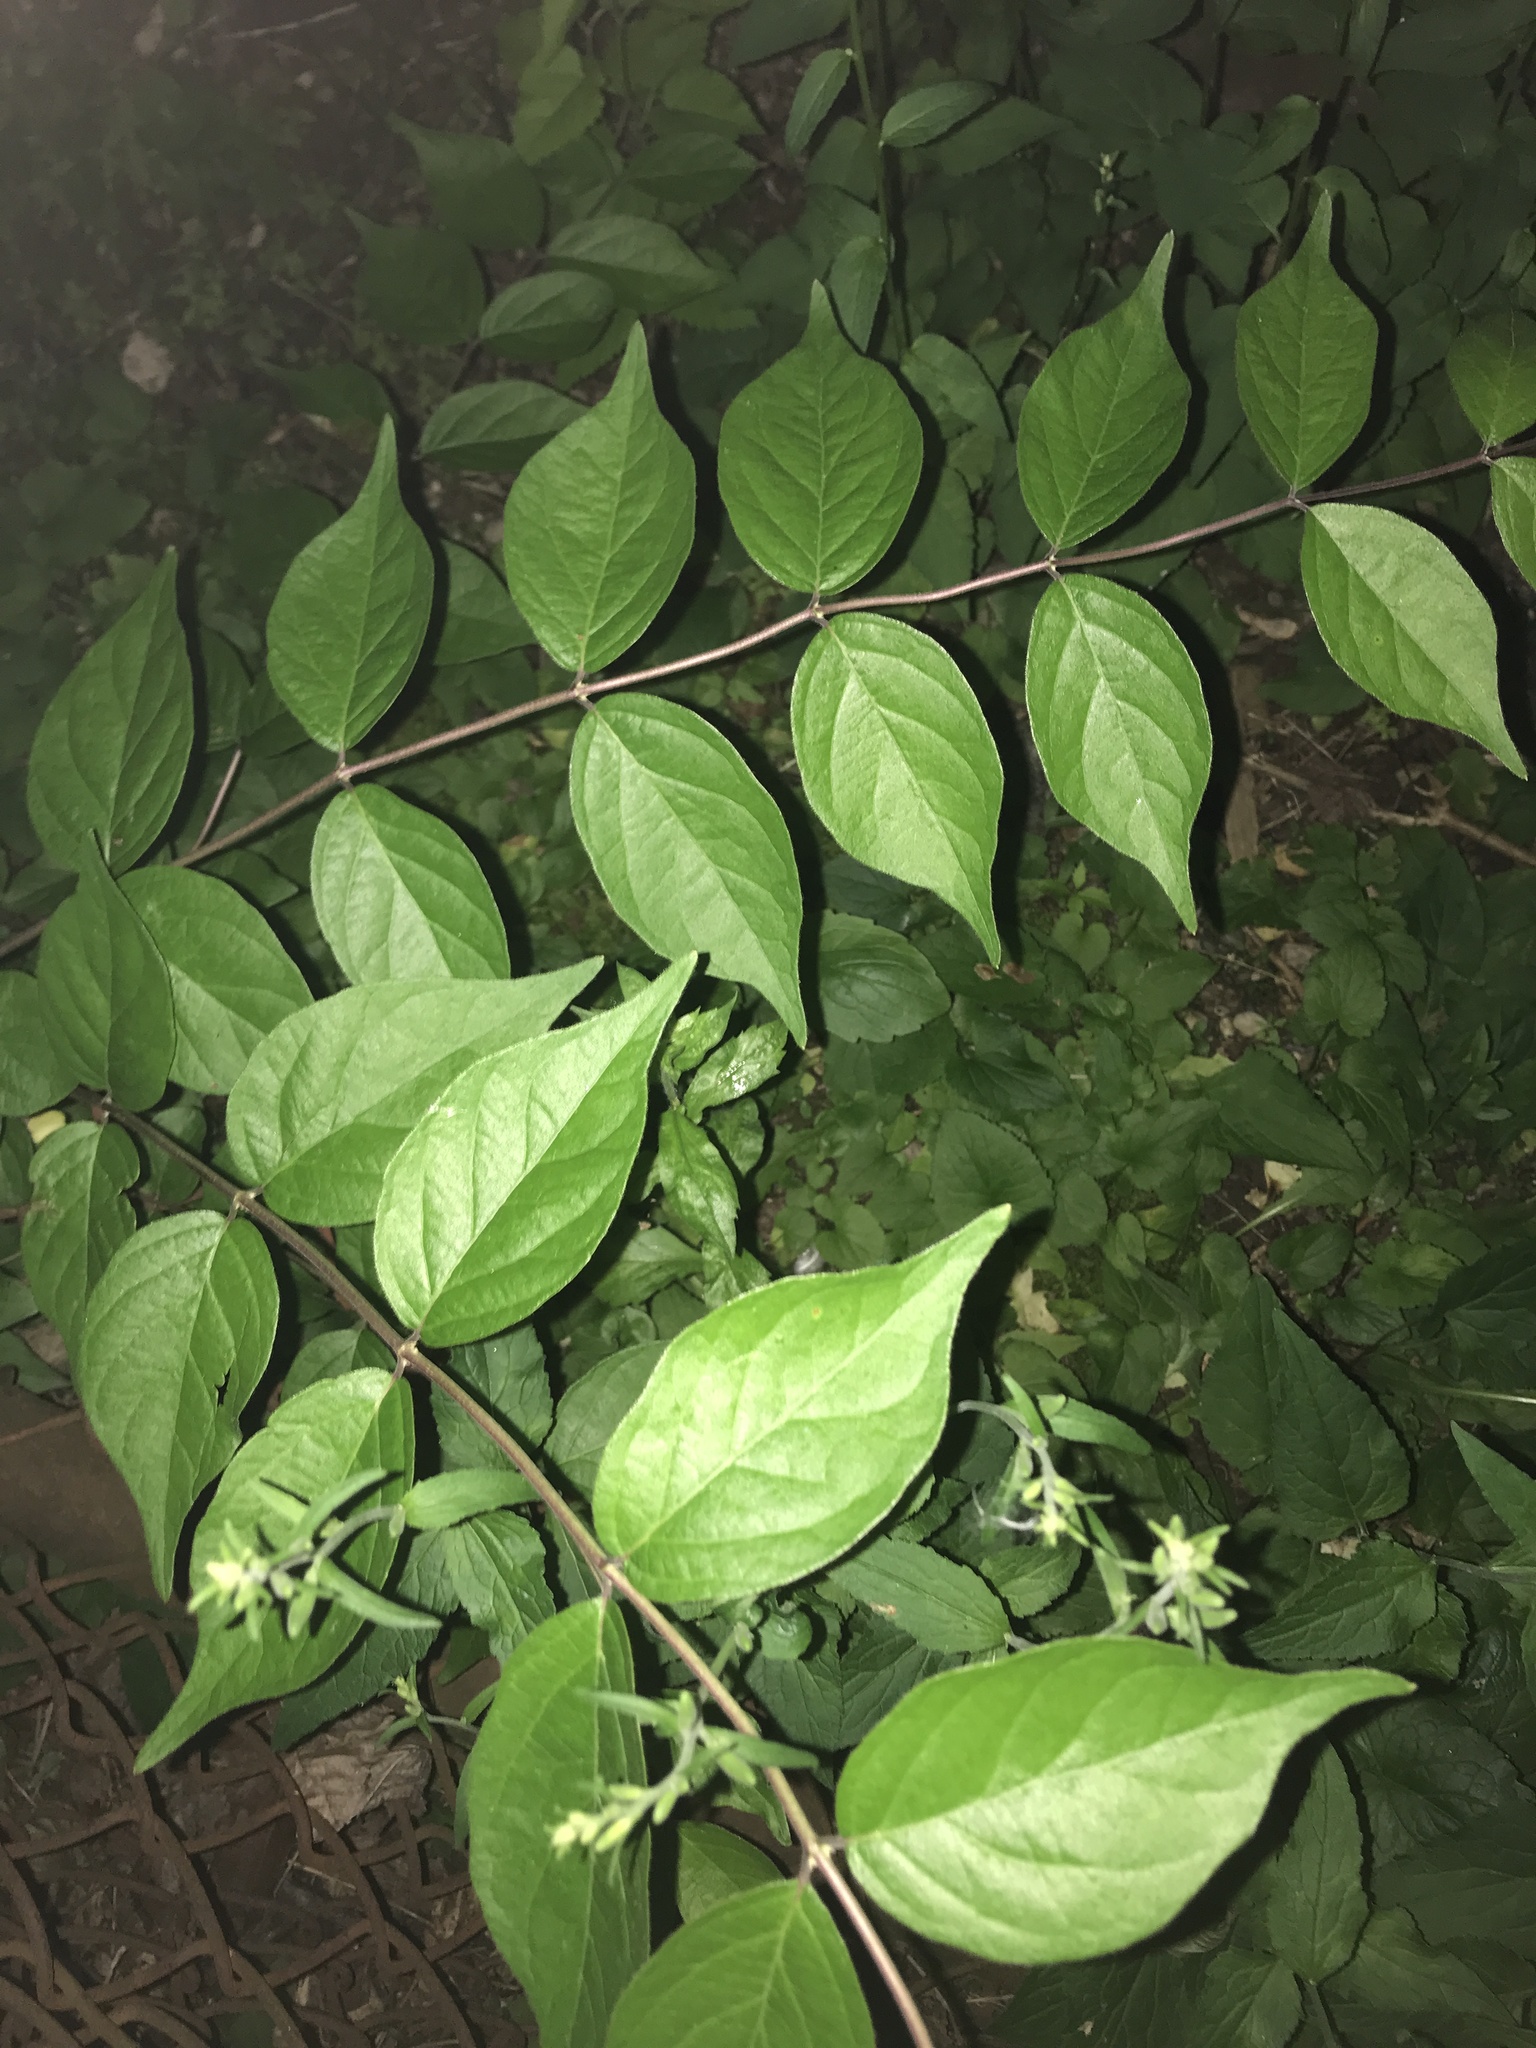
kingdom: Plantae
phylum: Tracheophyta
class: Magnoliopsida
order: Dipsacales
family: Caprifoliaceae
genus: Lonicera
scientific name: Lonicera maackii
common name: Amur honeysuckle
